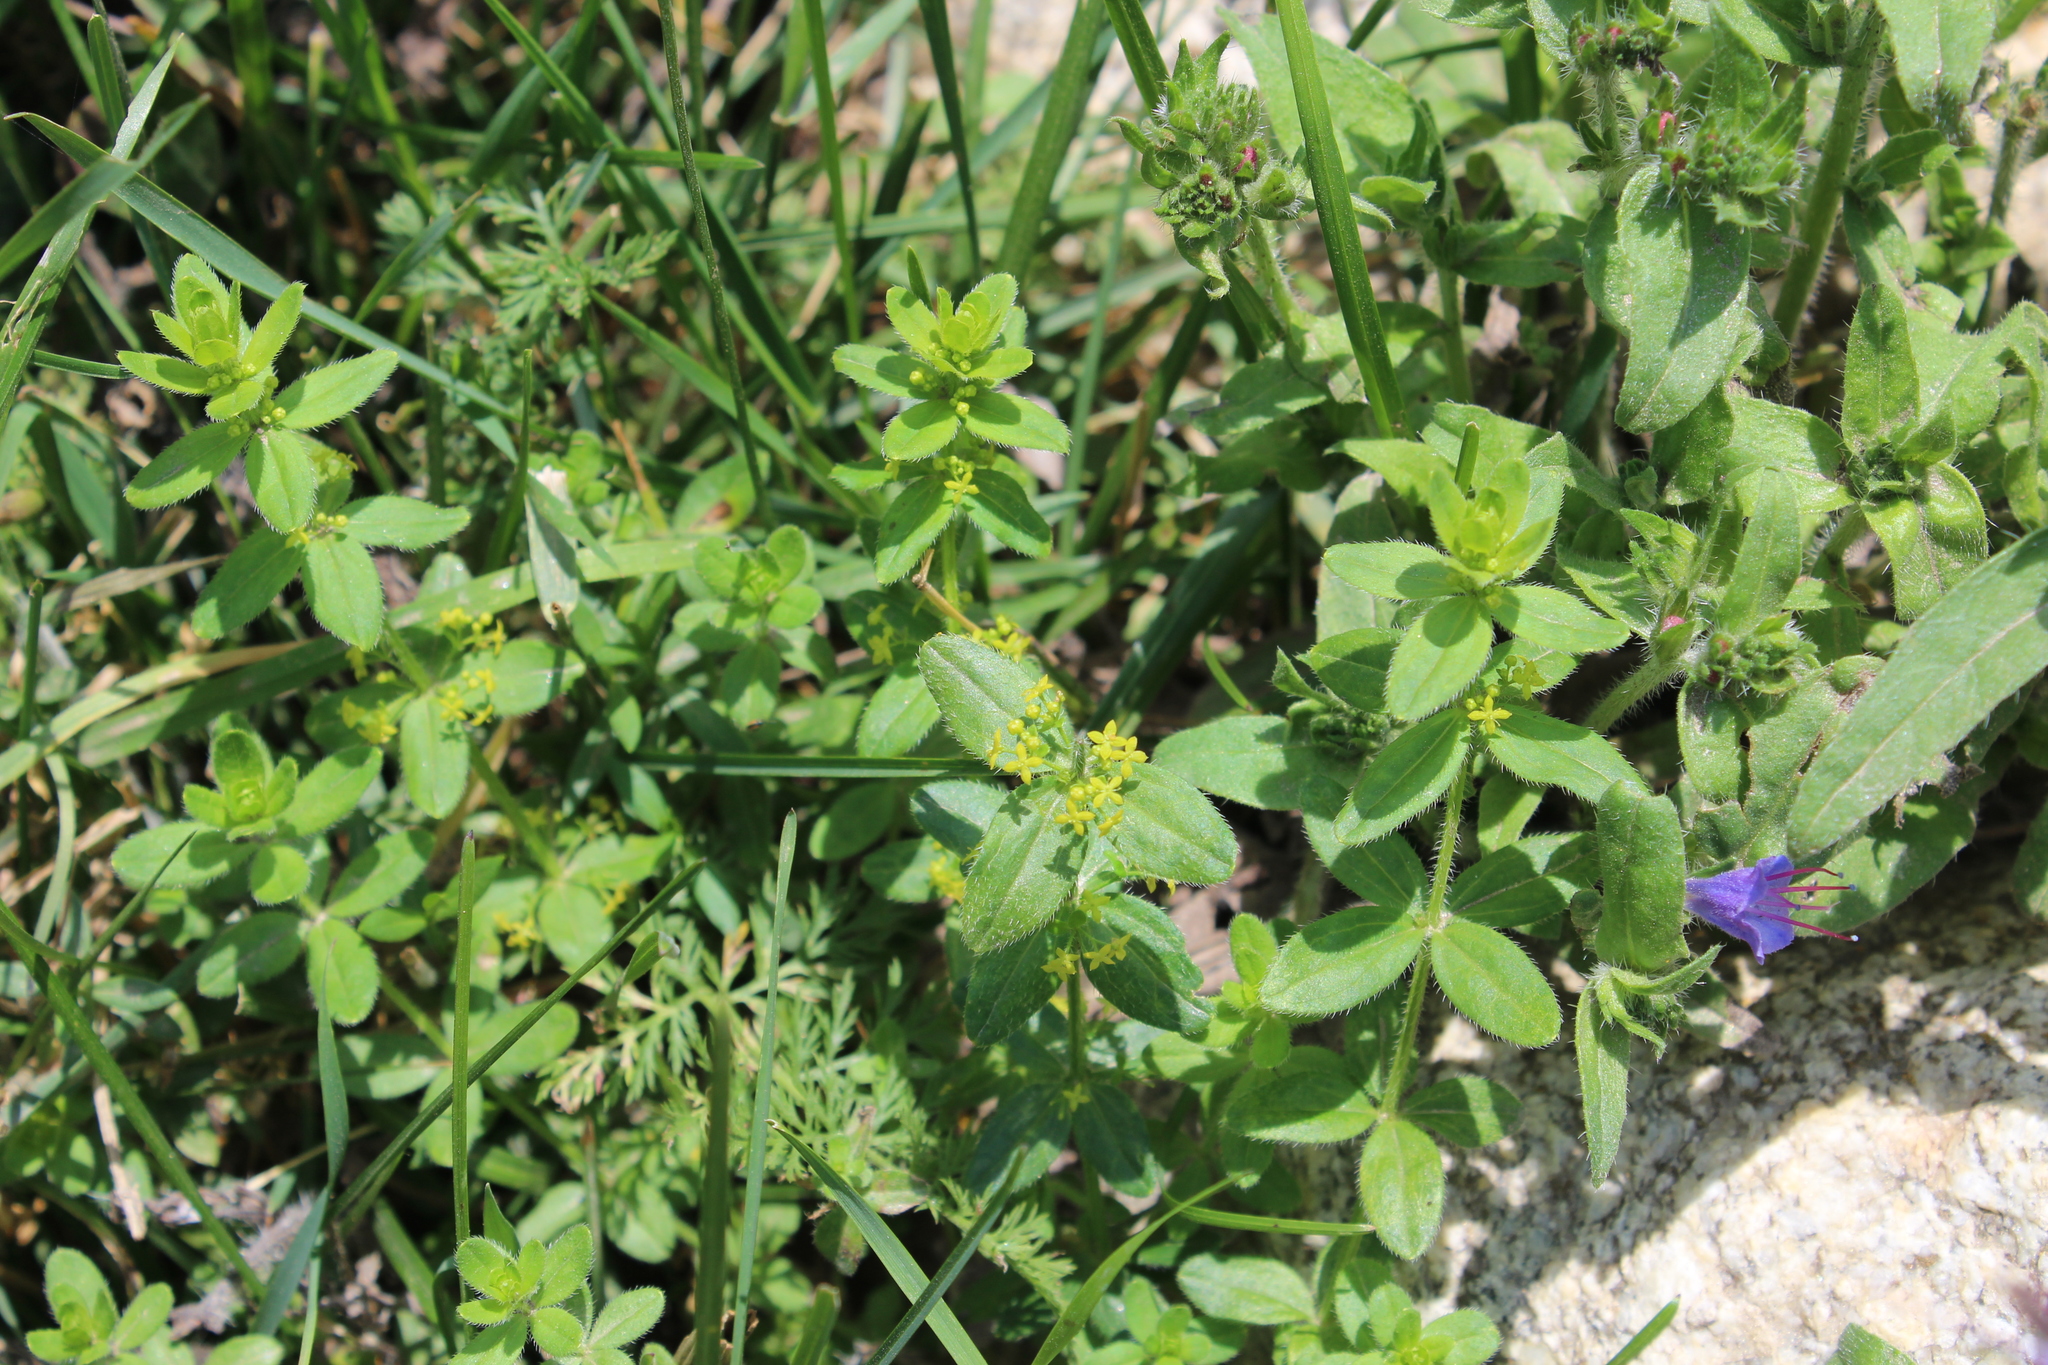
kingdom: Plantae
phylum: Tracheophyta
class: Magnoliopsida
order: Gentianales
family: Rubiaceae
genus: Cruciata
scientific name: Cruciata laevipes
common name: Crosswort
